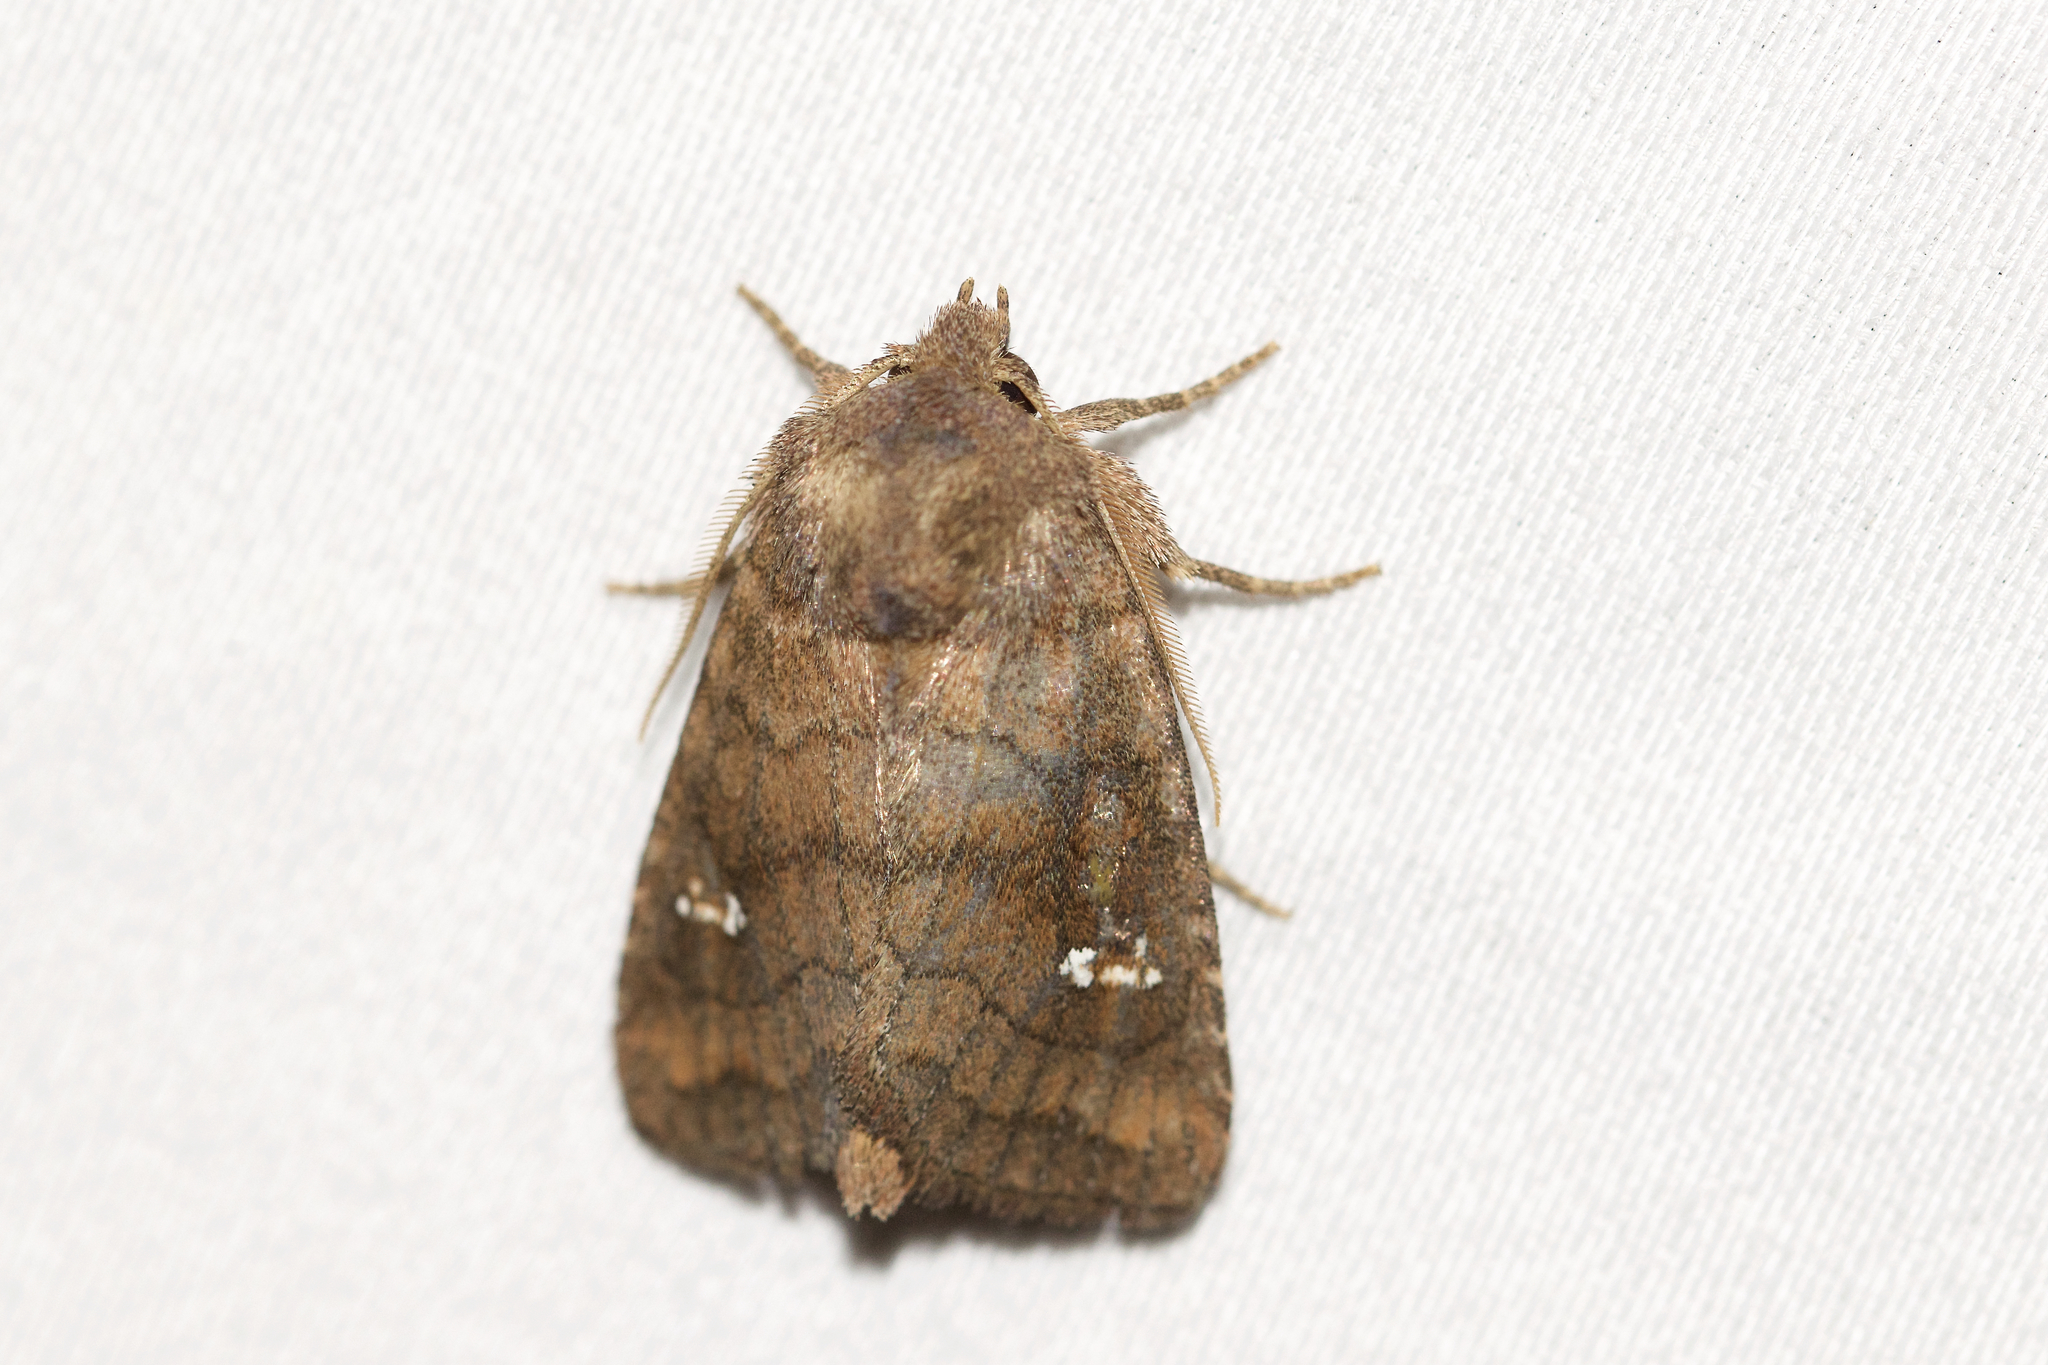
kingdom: Animalia
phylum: Arthropoda
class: Insecta
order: Lepidoptera
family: Noctuidae
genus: Tricholita
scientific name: Tricholita signata
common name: Signate quaker
